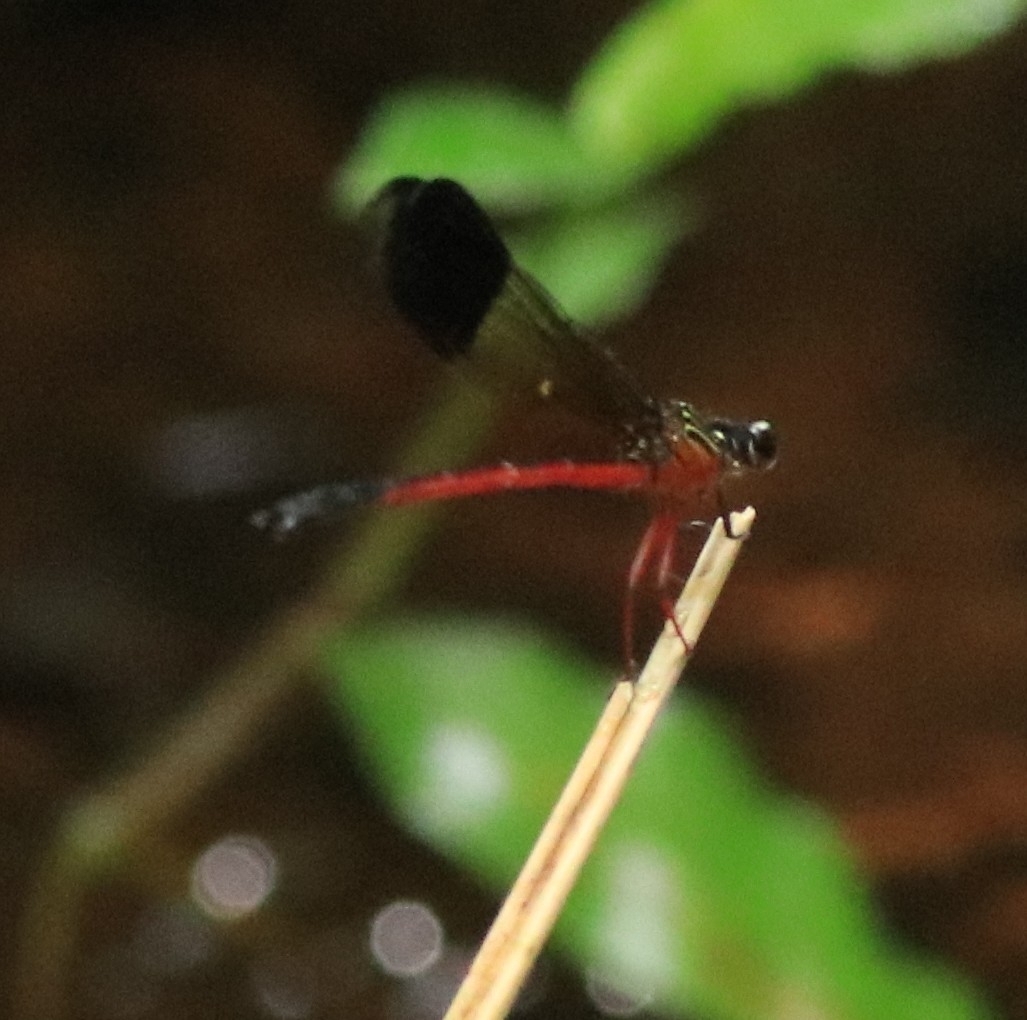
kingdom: Animalia
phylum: Arthropoda
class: Insecta
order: Odonata
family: Euphaeidae
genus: Euphaea
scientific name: Euphaea fraseri
